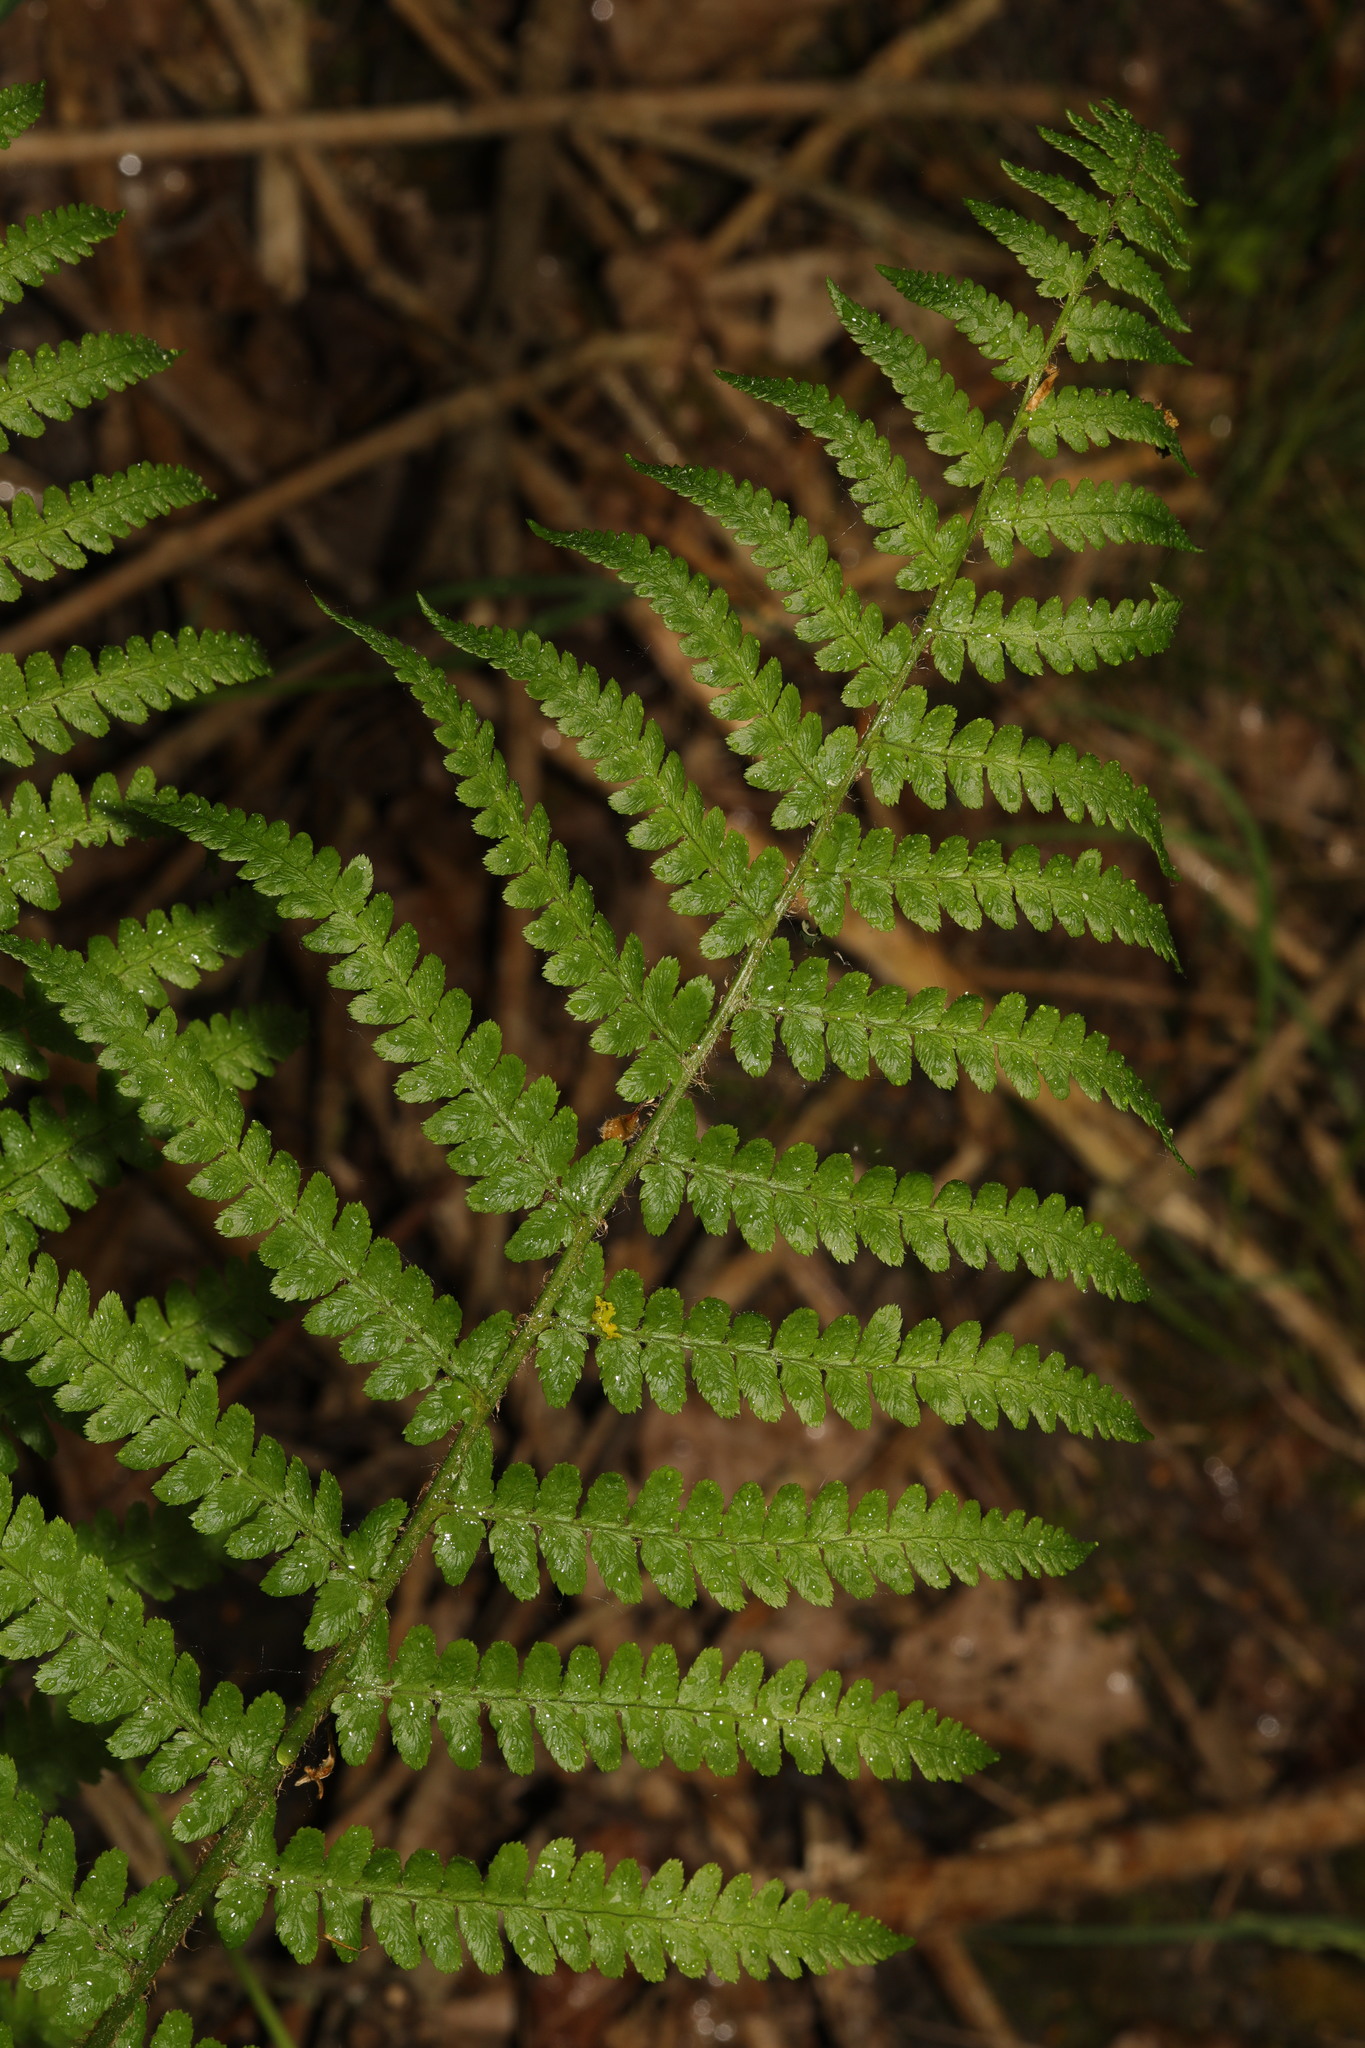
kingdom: Plantae
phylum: Tracheophyta
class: Polypodiopsida
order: Polypodiales
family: Dryopteridaceae
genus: Dryopteris
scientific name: Dryopteris filix-mas
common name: Male fern
